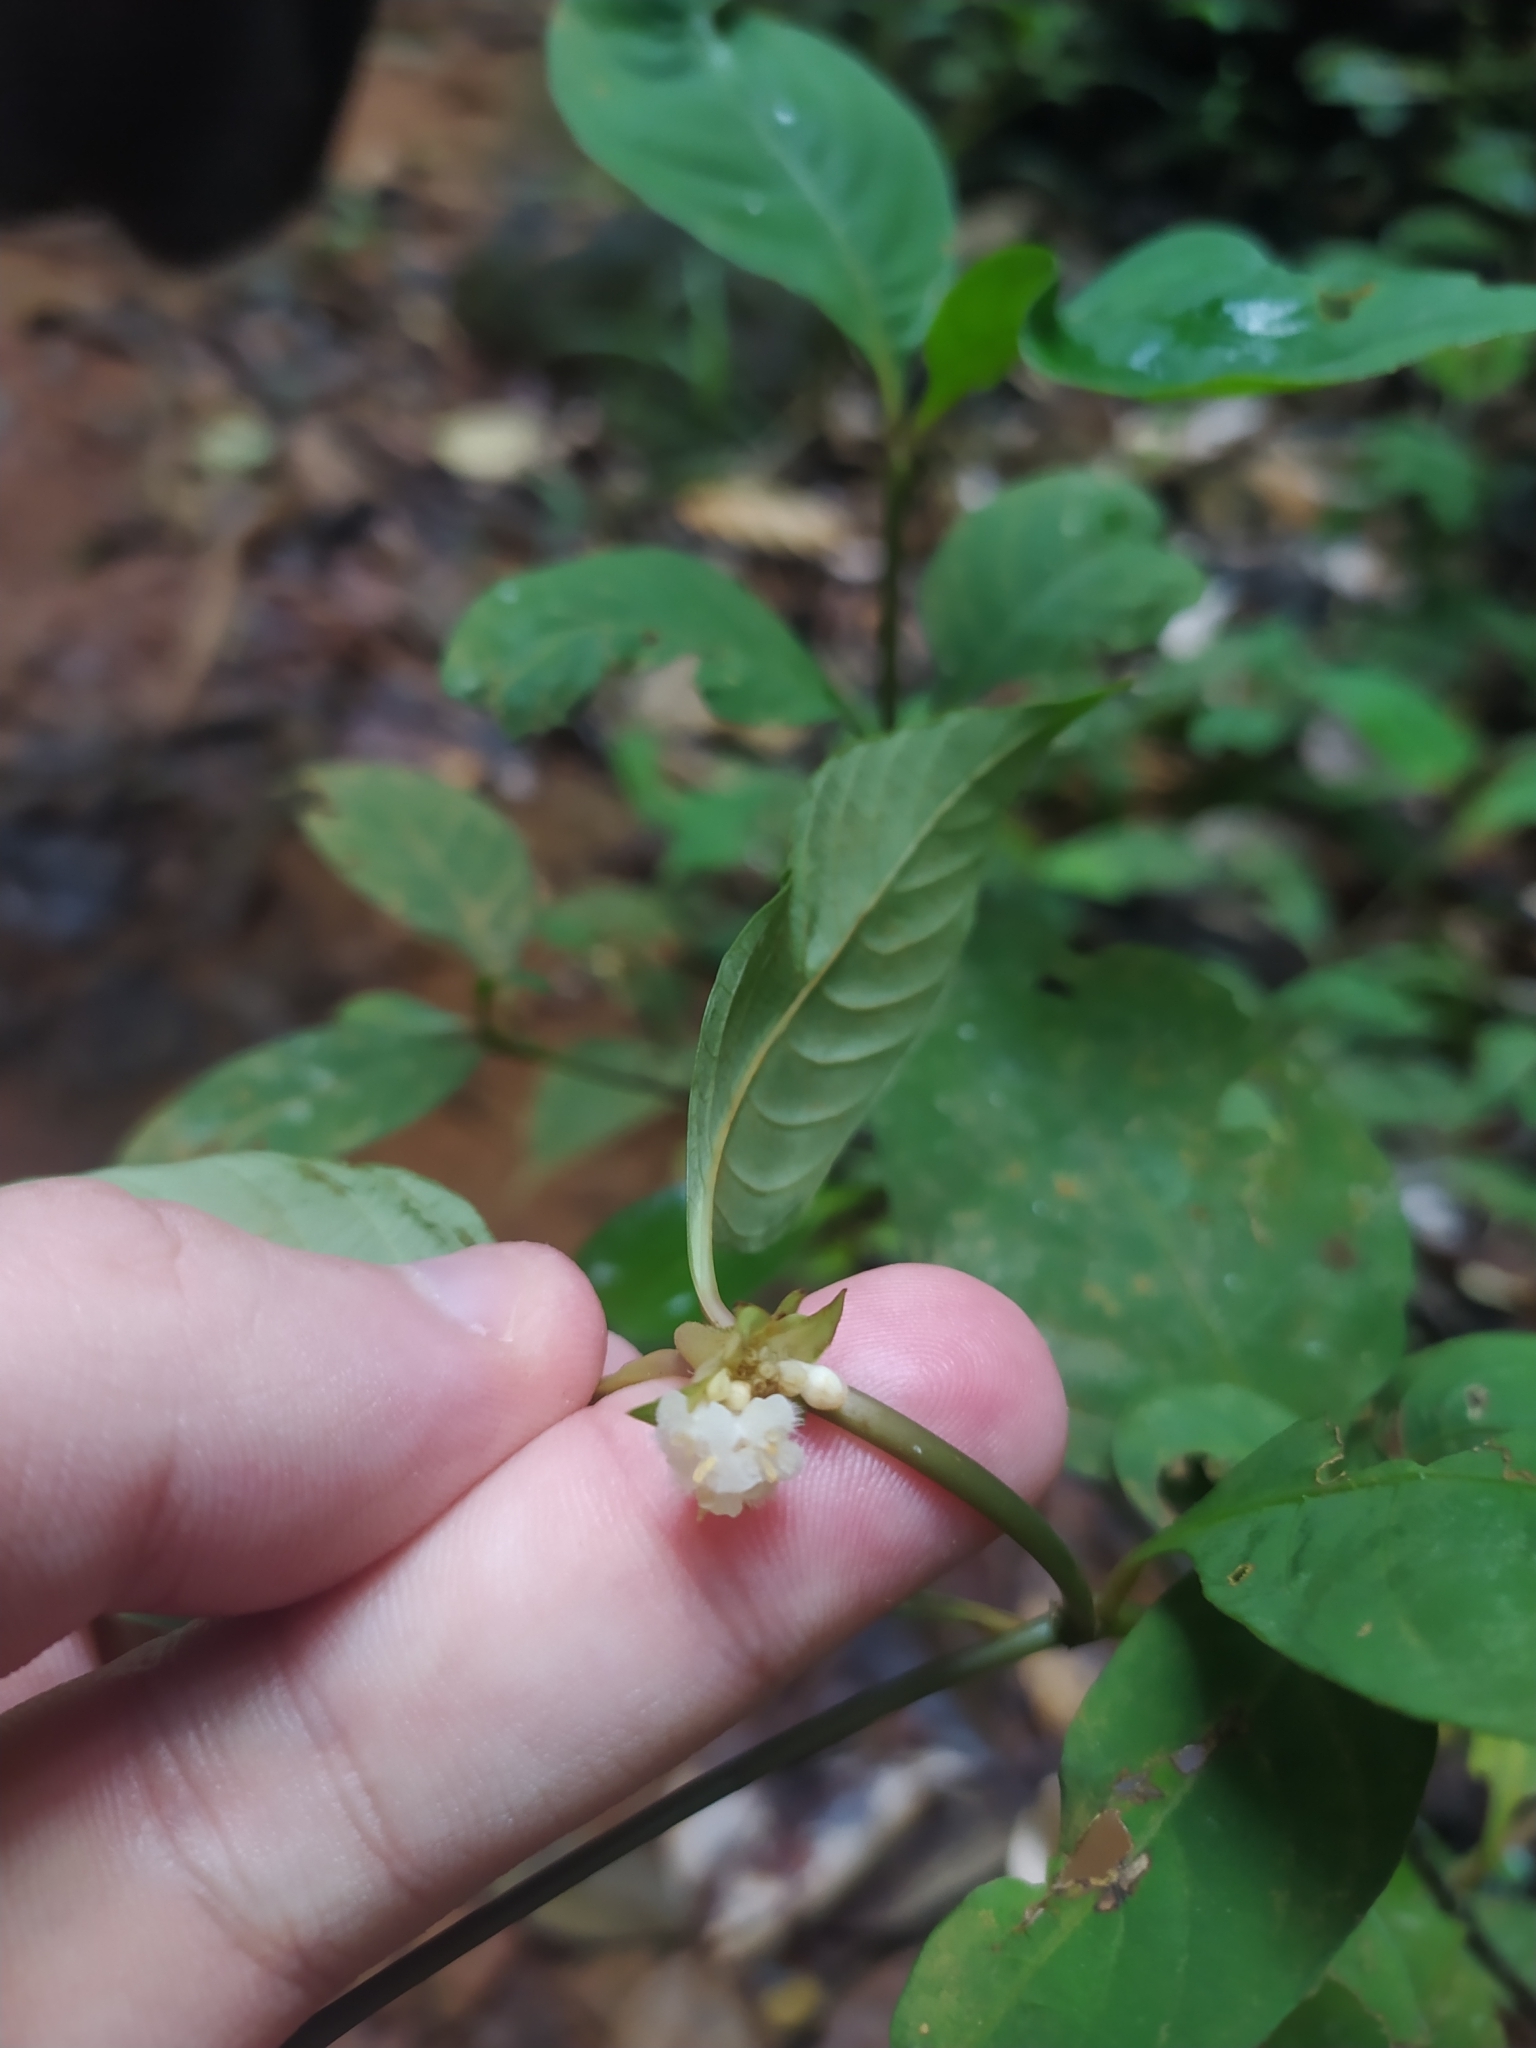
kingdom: Plantae
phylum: Tracheophyta
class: Magnoliopsida
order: Gentianales
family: Rubiaceae
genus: Palicourea
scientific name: Palicourea hoffmannseggiana
